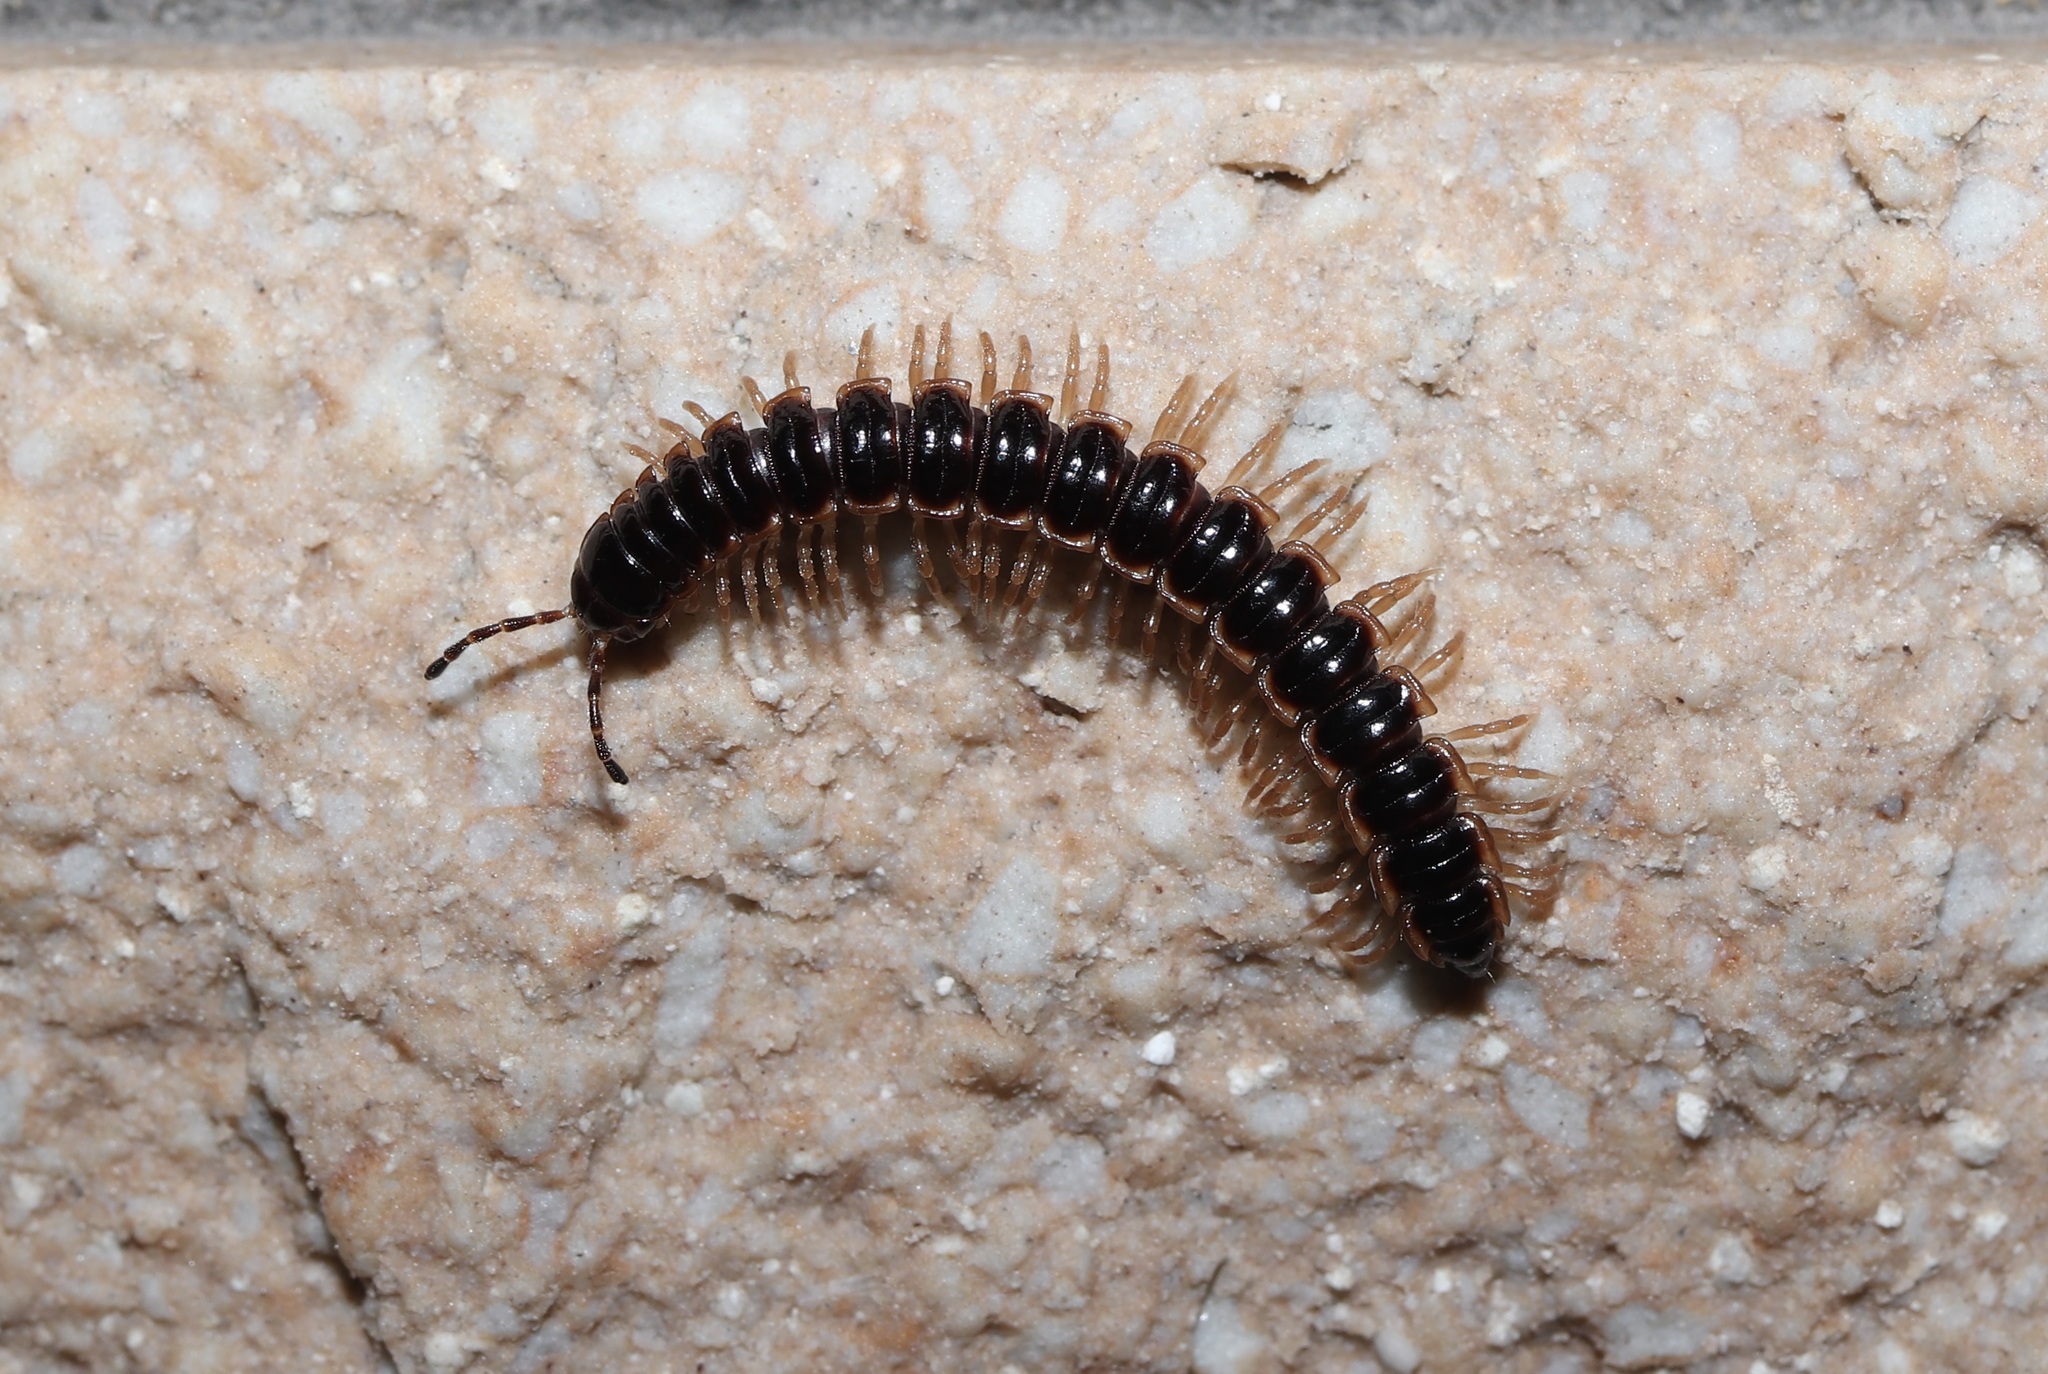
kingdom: Animalia
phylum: Arthropoda
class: Diplopoda
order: Polydesmida
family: Paradoxosomatidae
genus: Oxidus
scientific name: Oxidus gracilis
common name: Greenhouse millipede
